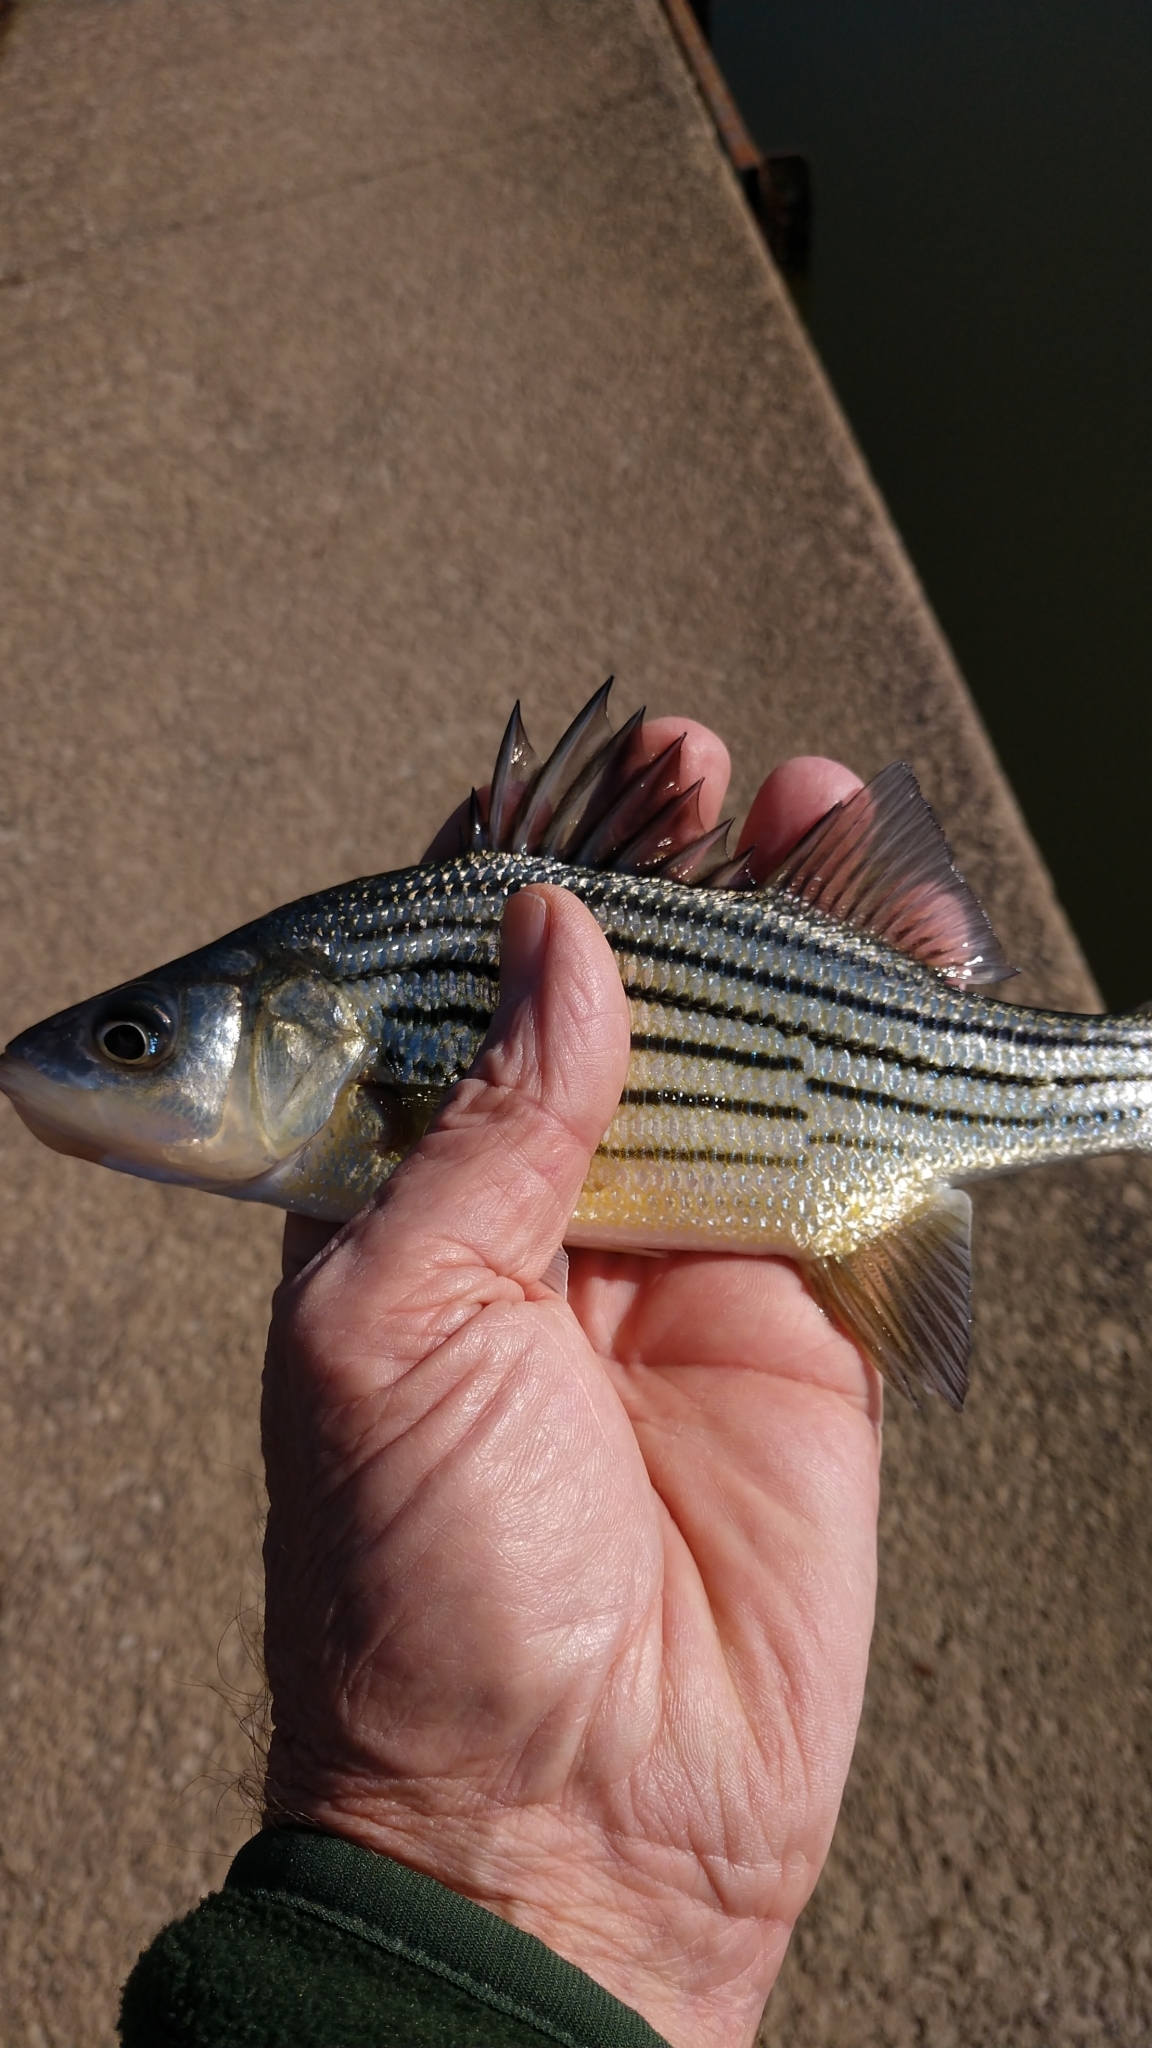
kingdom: Animalia
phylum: Chordata
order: Perciformes
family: Moronidae
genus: Morone
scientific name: Morone mississippiensis
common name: Yellow bass
